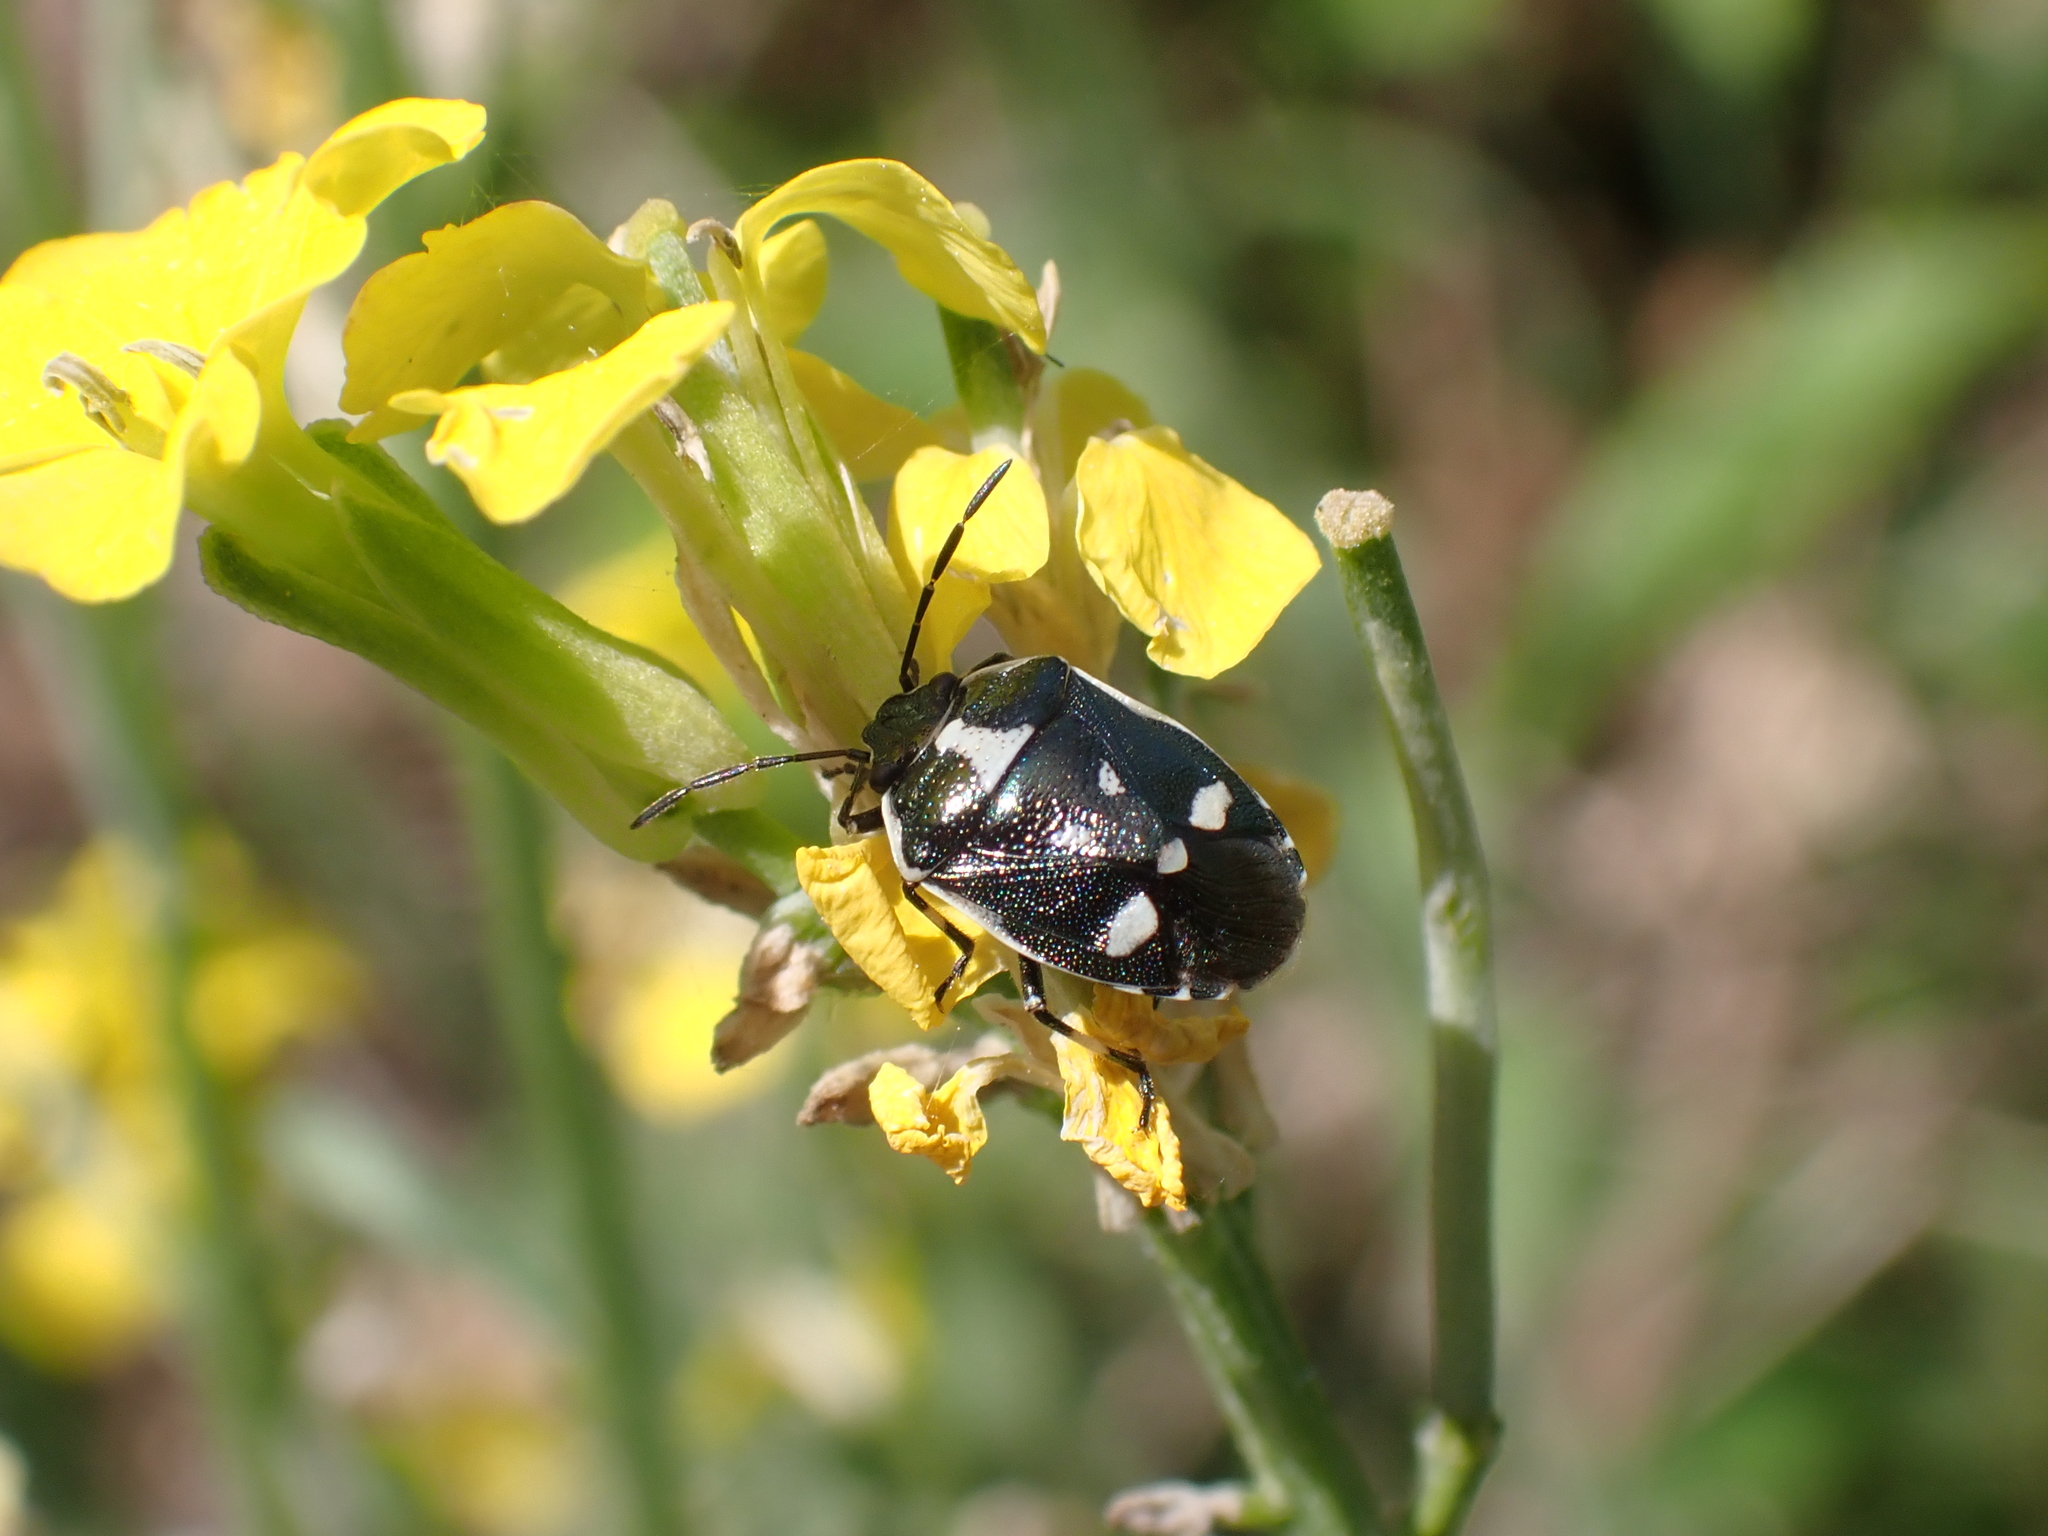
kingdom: Animalia
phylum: Arthropoda
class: Insecta
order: Hemiptera
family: Pentatomidae
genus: Eurydema
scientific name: Eurydema oleracea
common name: Cabbage bug
